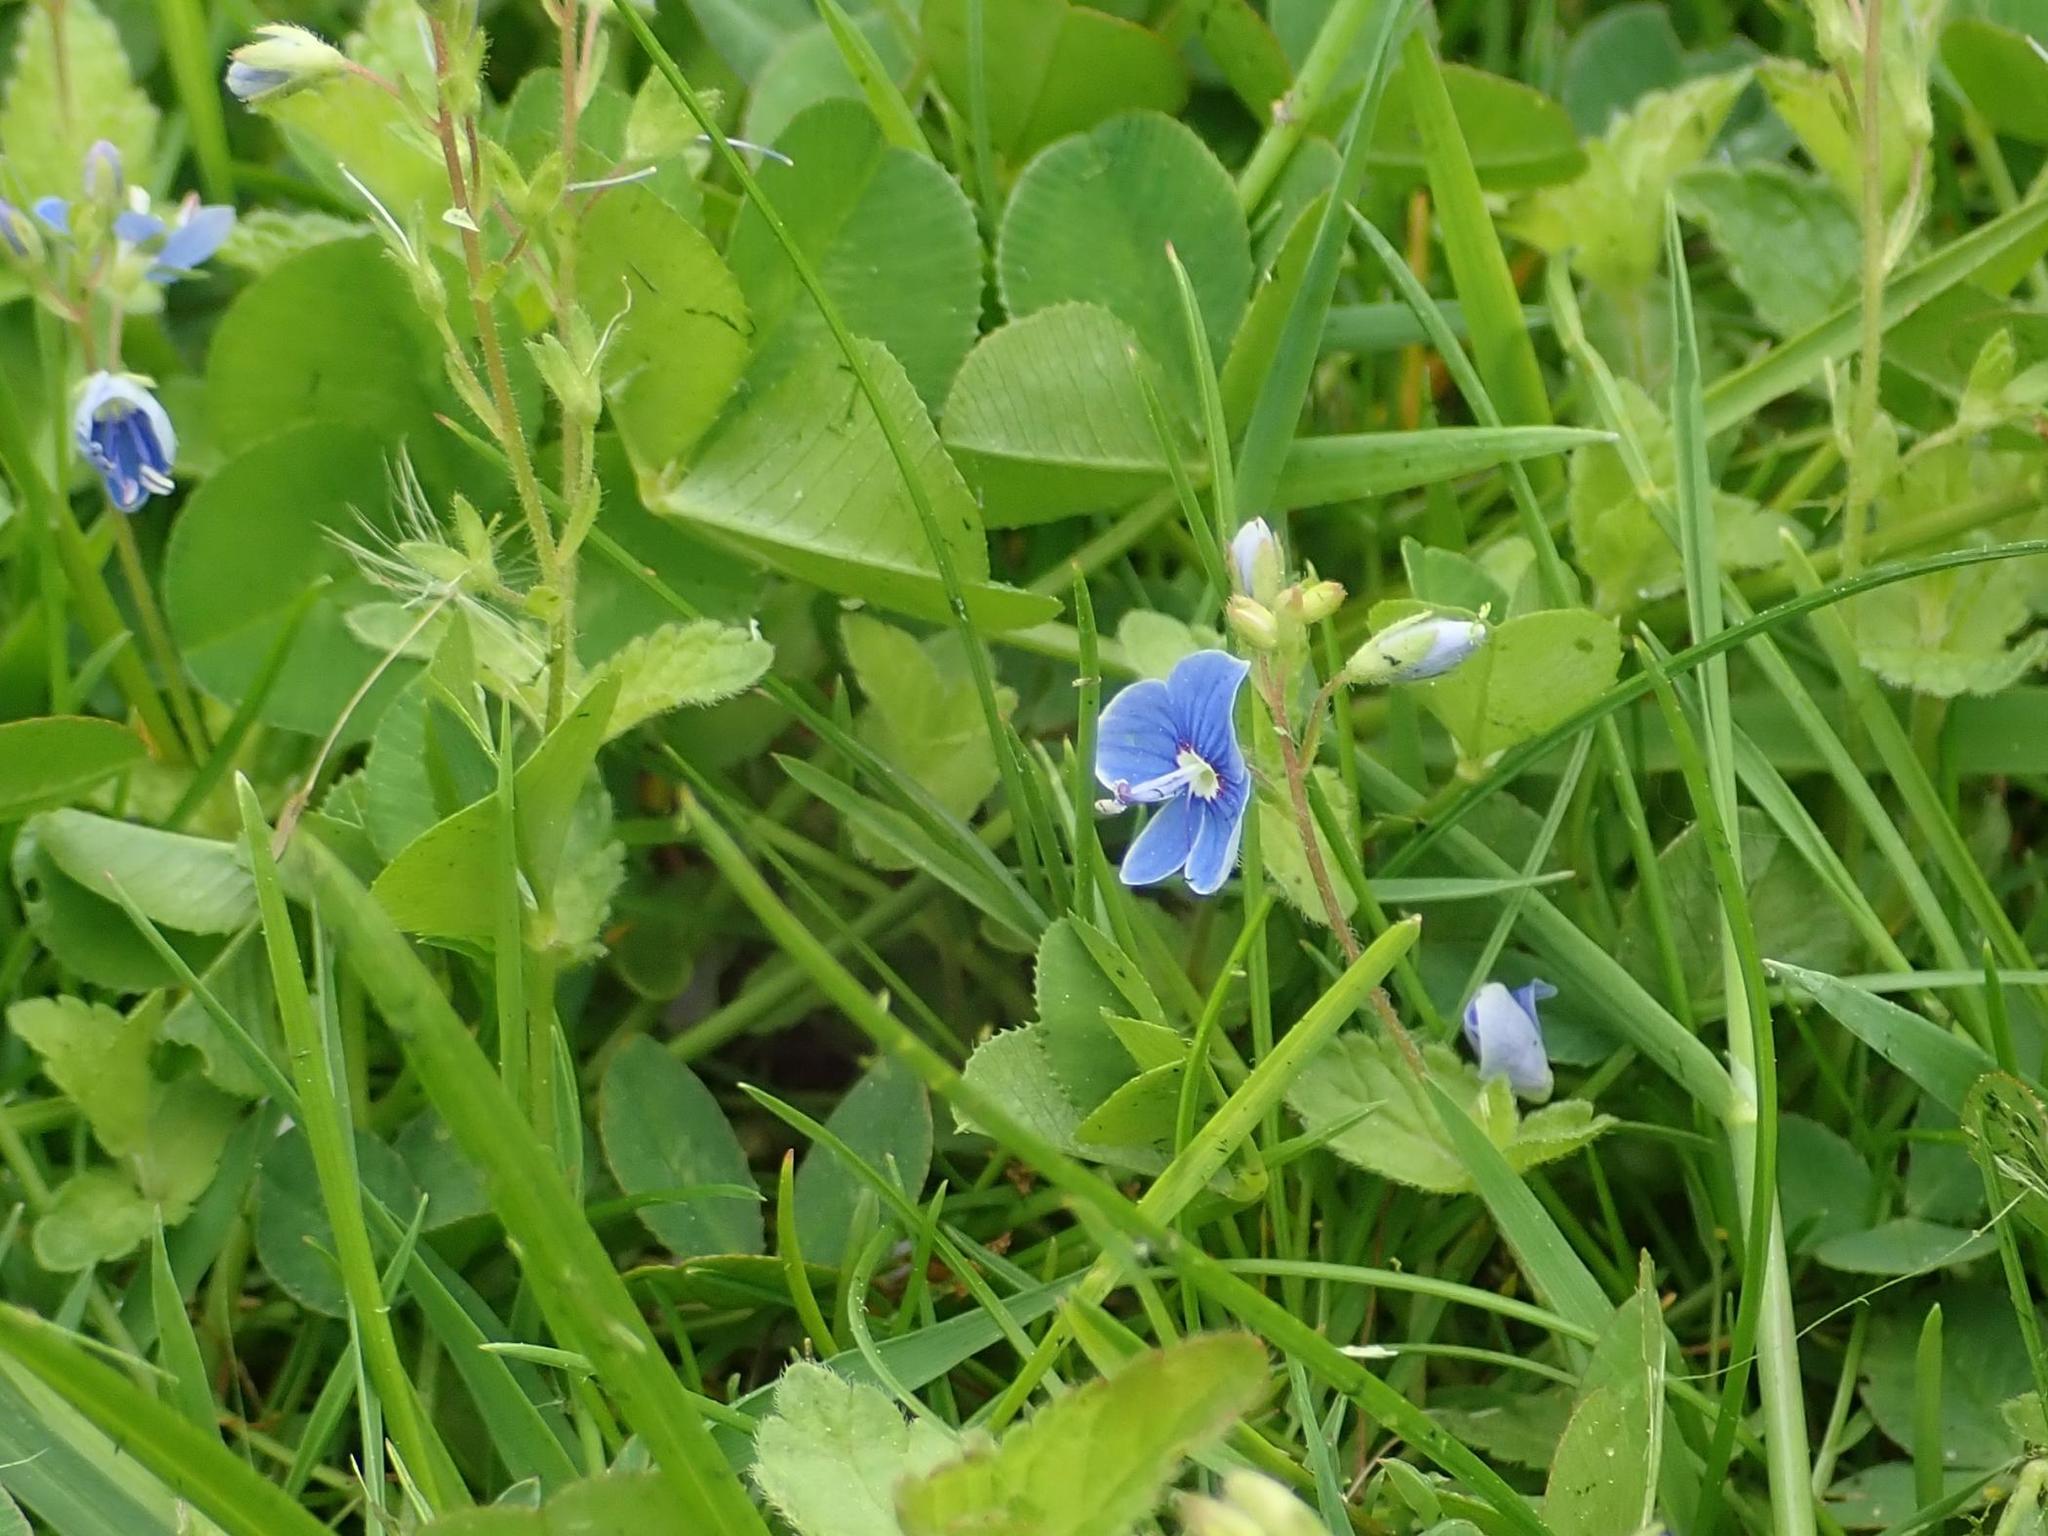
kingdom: Plantae
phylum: Tracheophyta
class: Magnoliopsida
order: Lamiales
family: Plantaginaceae
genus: Veronica
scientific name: Veronica chamaedrys
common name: Germander speedwell
